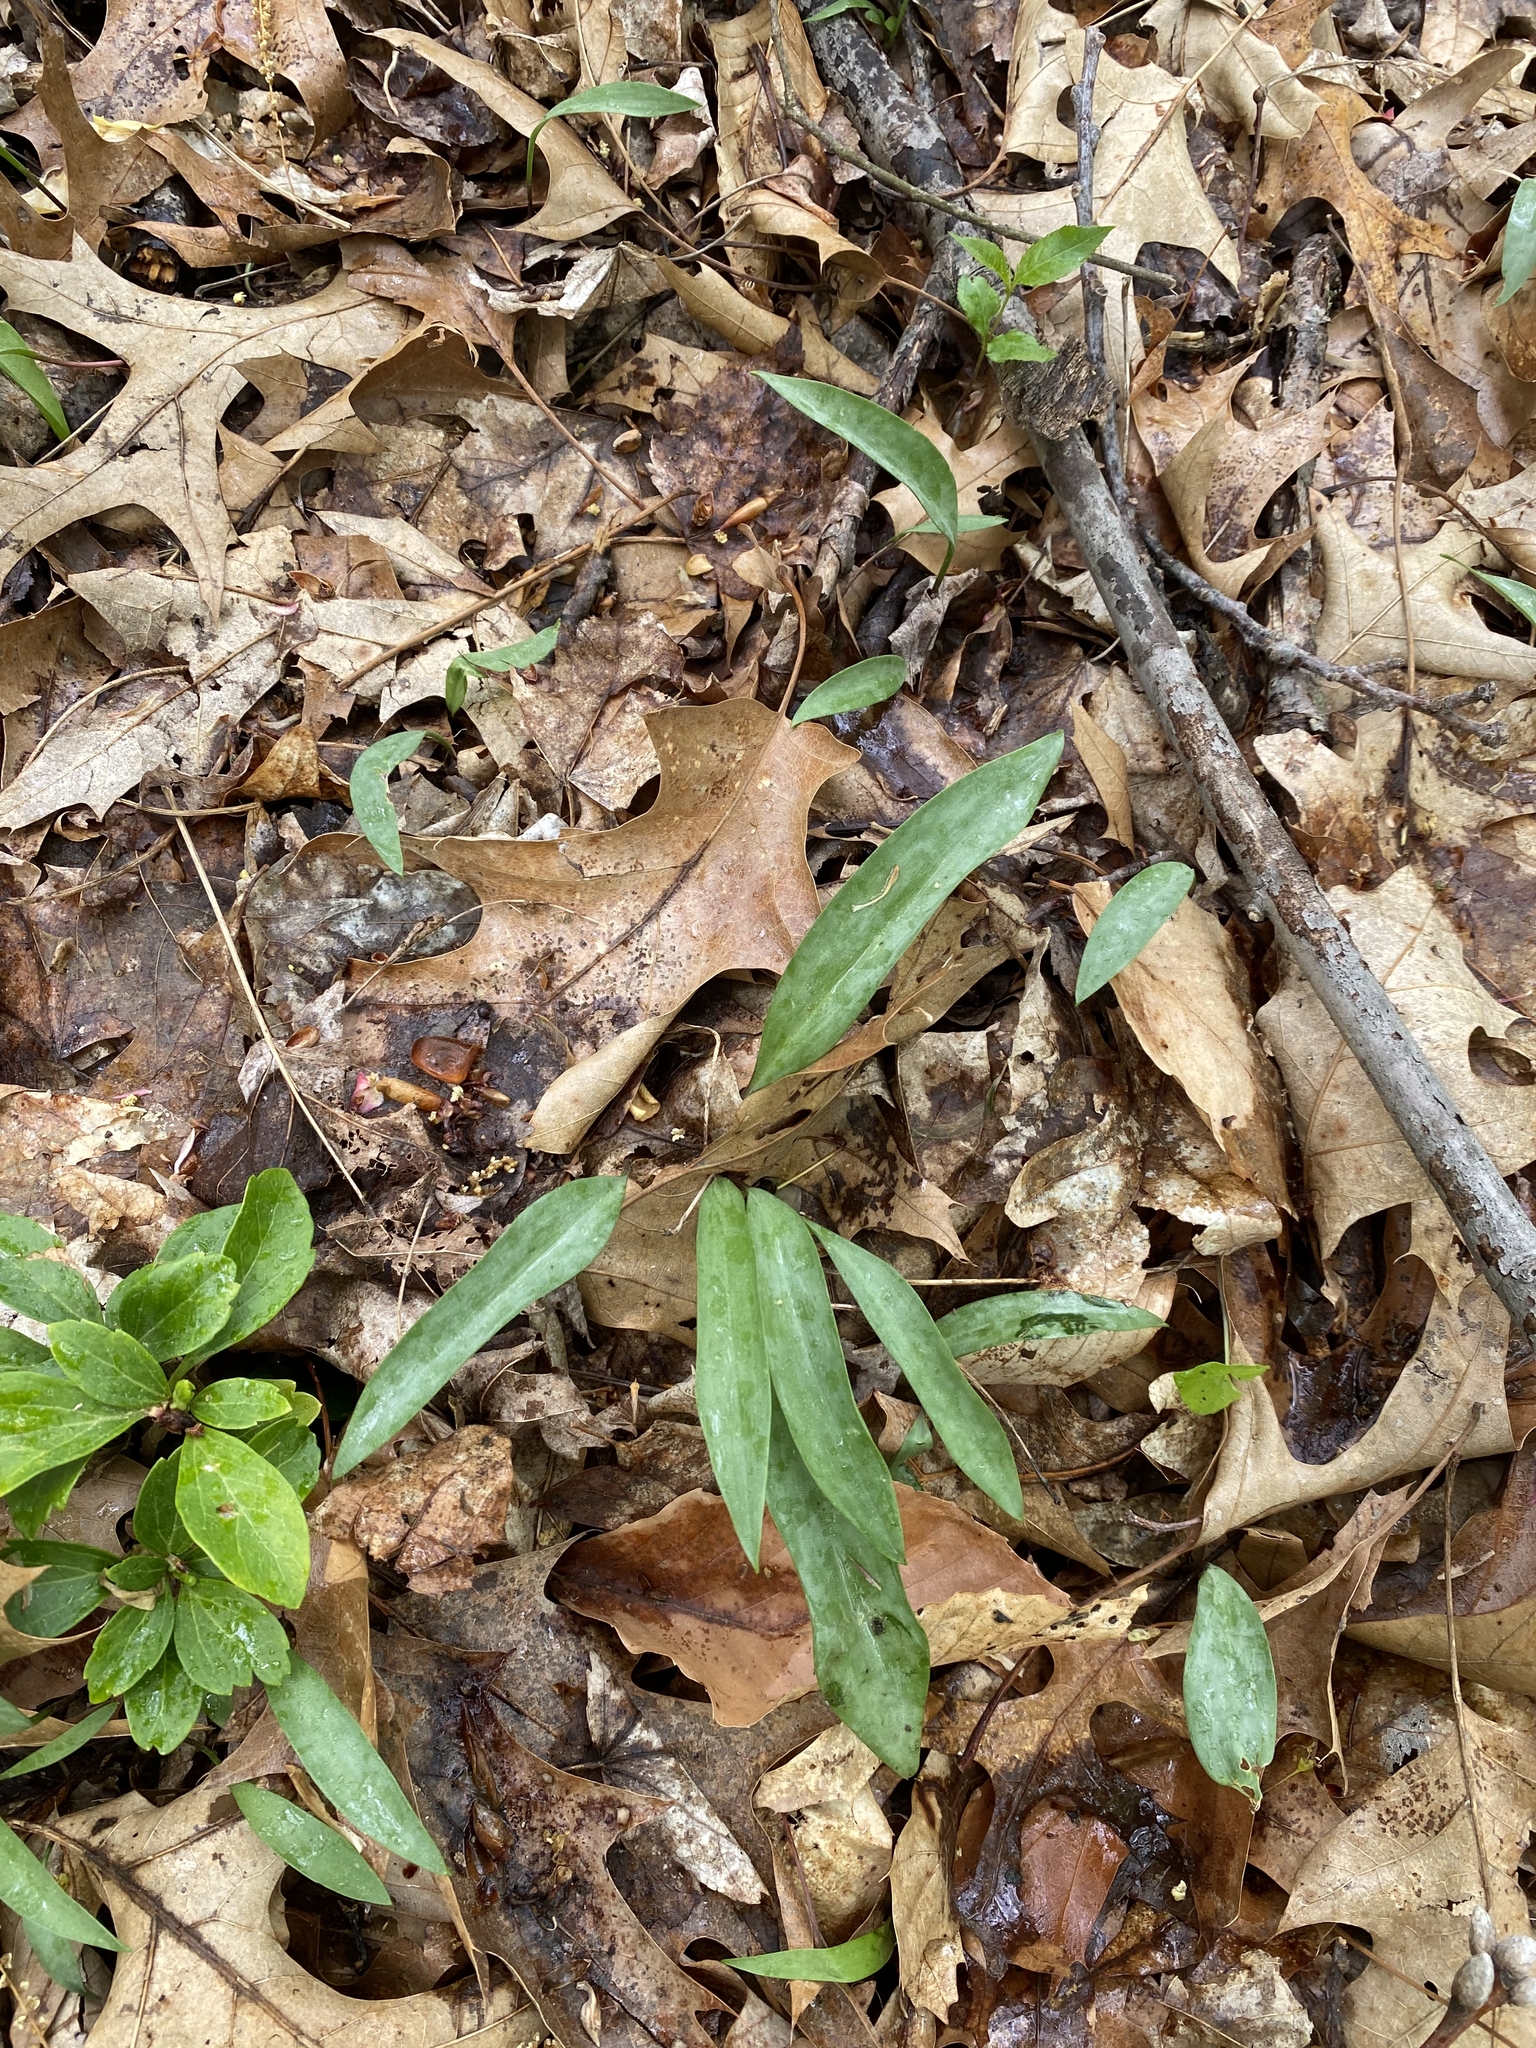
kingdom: Plantae
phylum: Tracheophyta
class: Liliopsida
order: Liliales
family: Liliaceae
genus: Erythronium
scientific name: Erythronium americanum
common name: Yellow adder's-tongue
